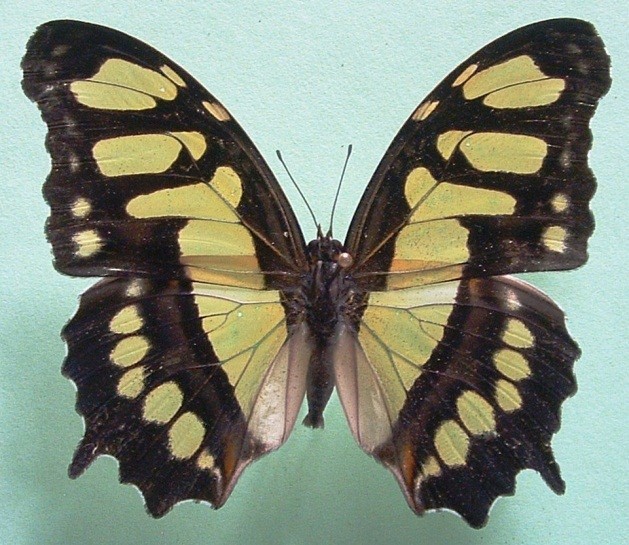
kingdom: Animalia
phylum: Arthropoda
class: Insecta
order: Lepidoptera
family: Nymphalidae
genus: Siproeta
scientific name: Siproeta stelenes
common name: Malachite
